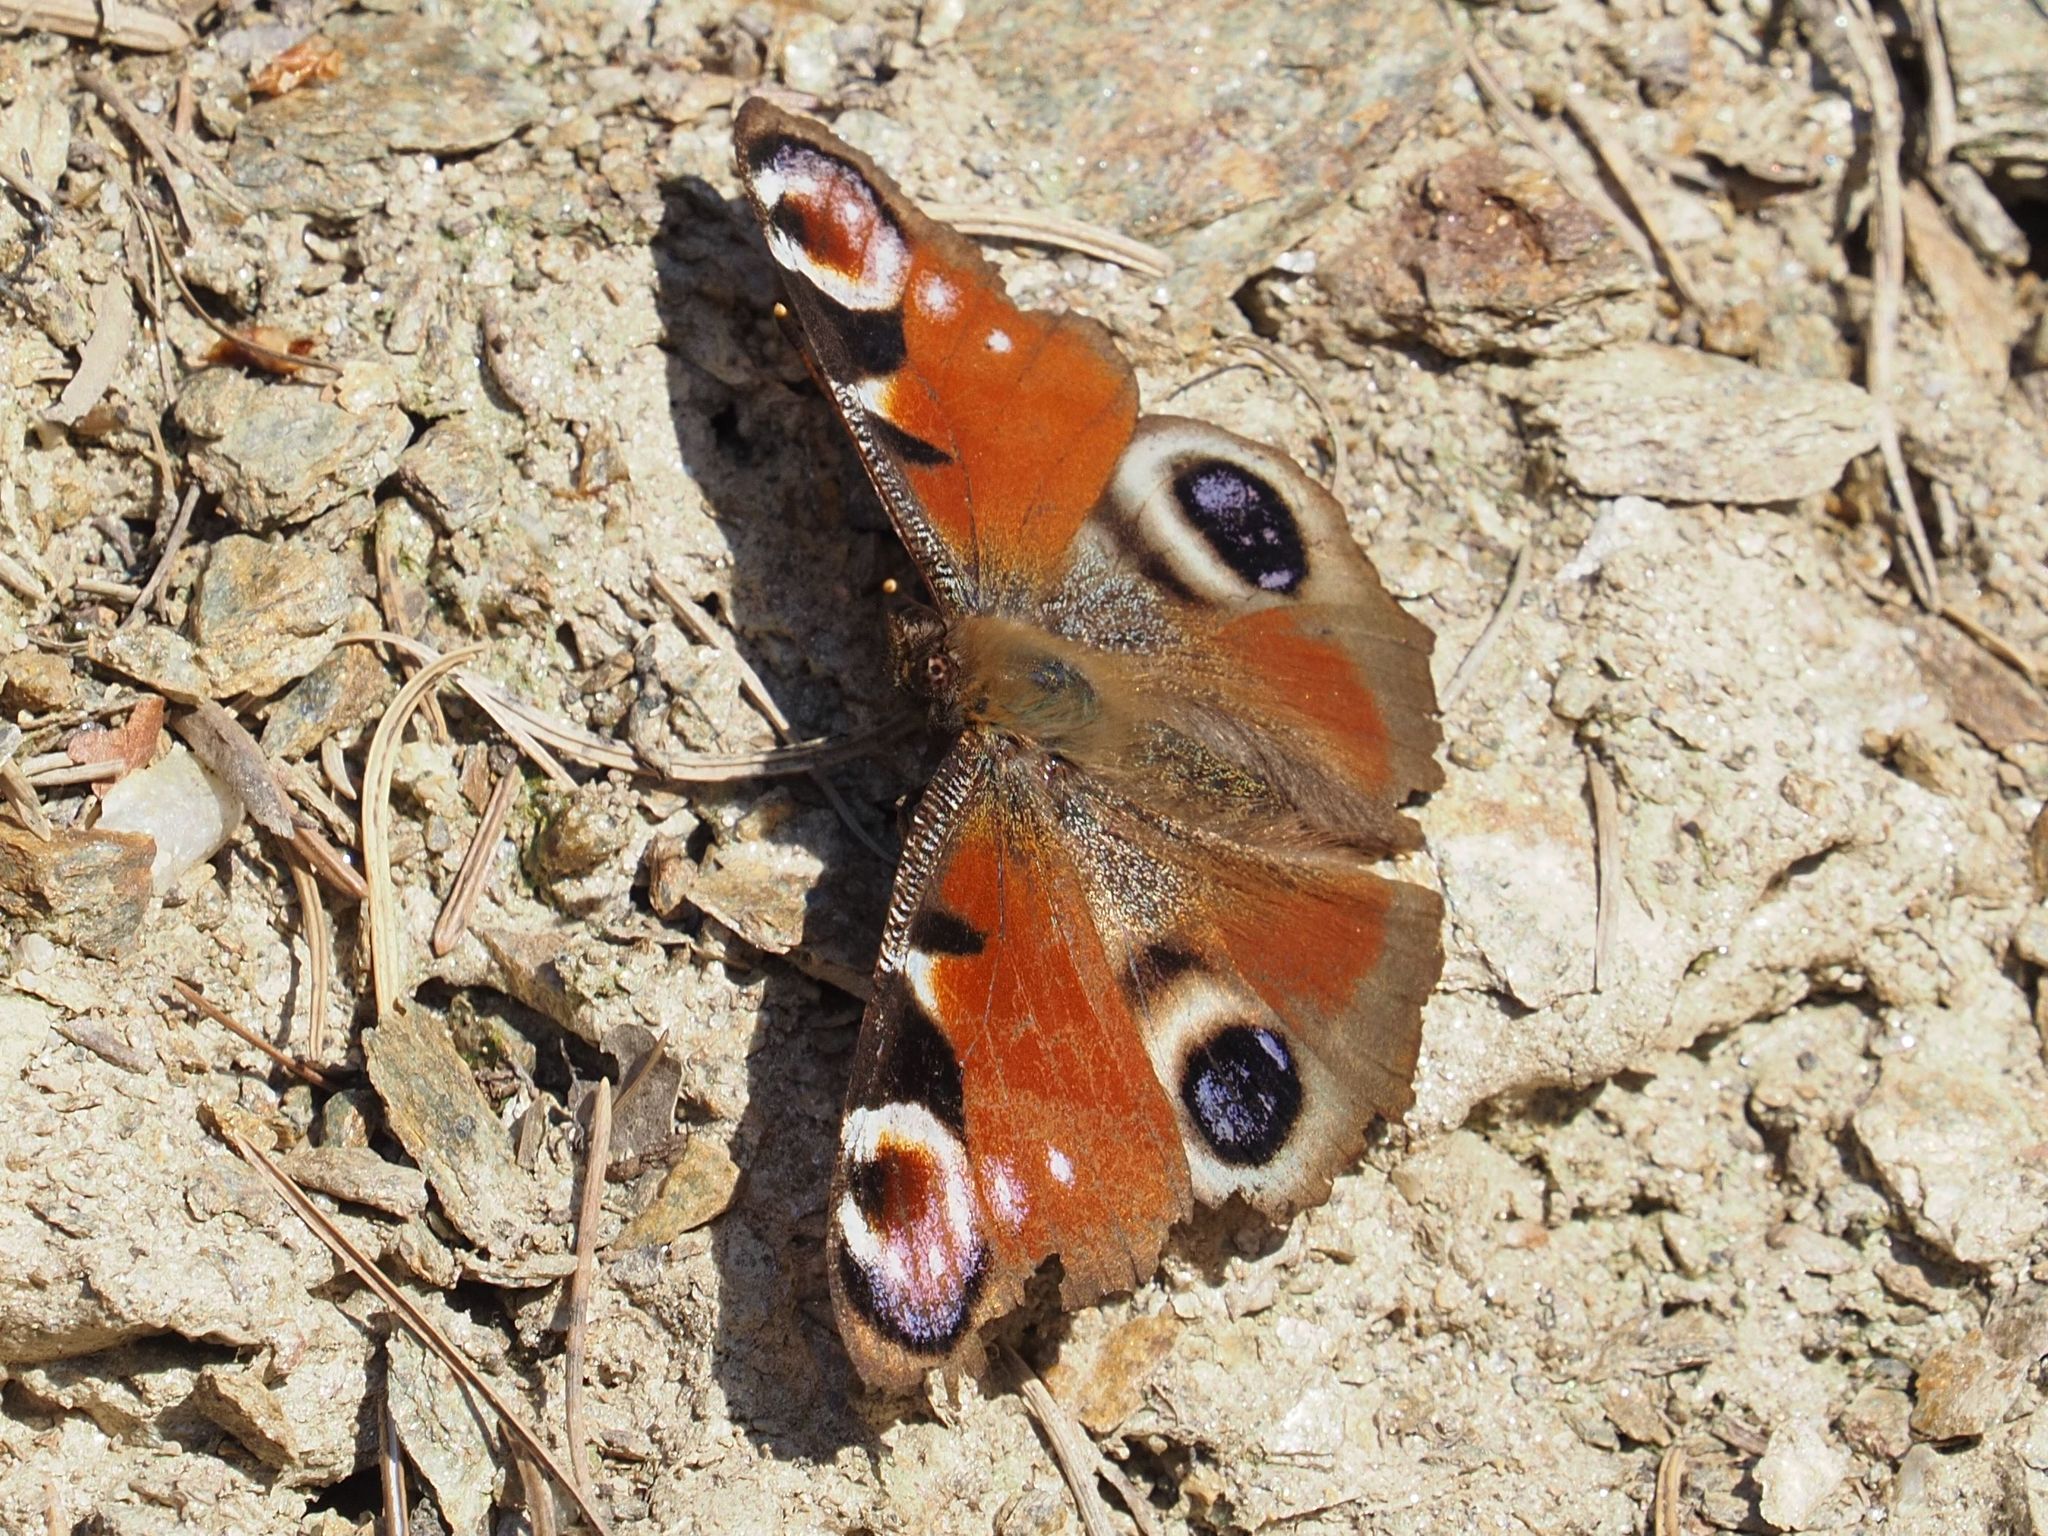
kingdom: Animalia
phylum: Arthropoda
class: Insecta
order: Lepidoptera
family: Nymphalidae
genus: Aglais
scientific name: Aglais io
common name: Peacock
